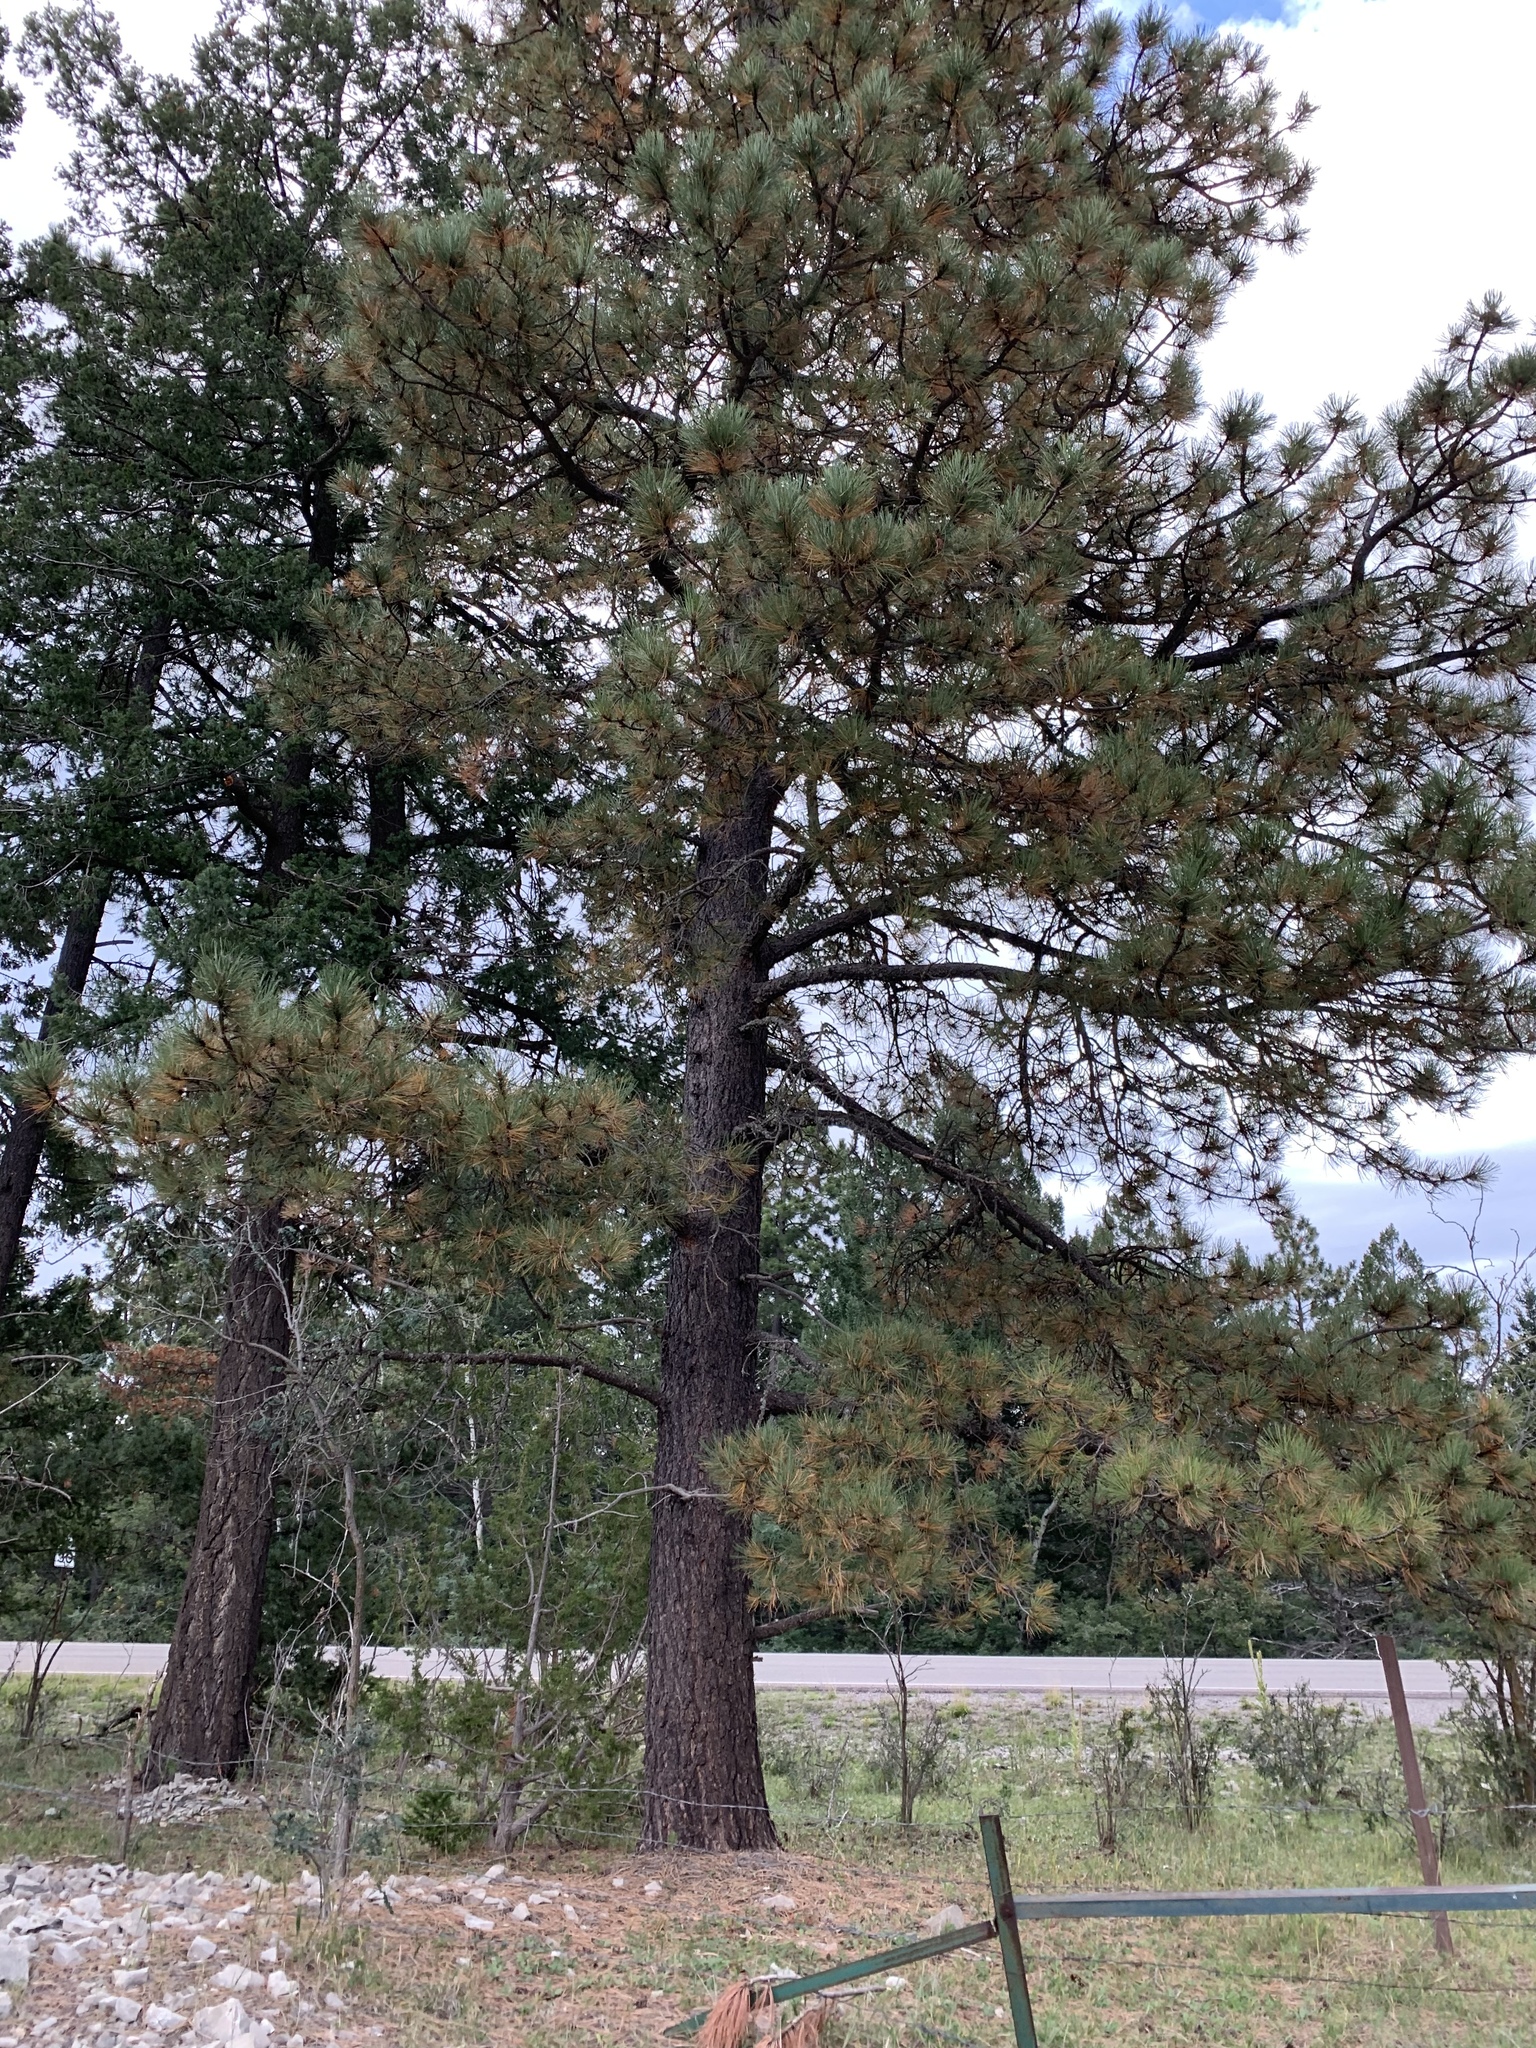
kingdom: Plantae
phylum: Tracheophyta
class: Pinopsida
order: Pinales
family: Pinaceae
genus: Pinus
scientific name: Pinus ponderosa
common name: Western yellow-pine
